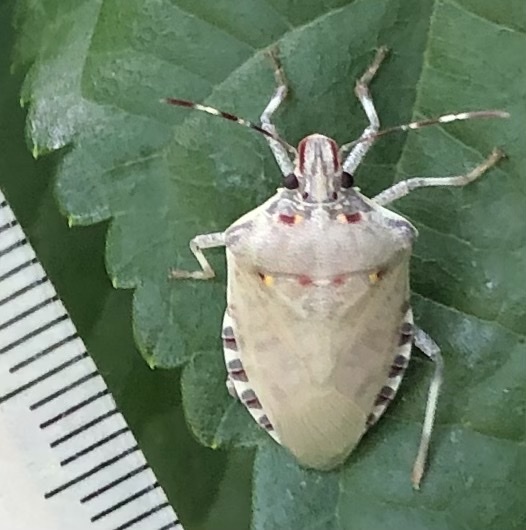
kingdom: Animalia
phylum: Arthropoda
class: Insecta
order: Hemiptera
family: Pentatomidae
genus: Halyomorpha
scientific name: Halyomorpha halys
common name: Brown marmorated stink bug
